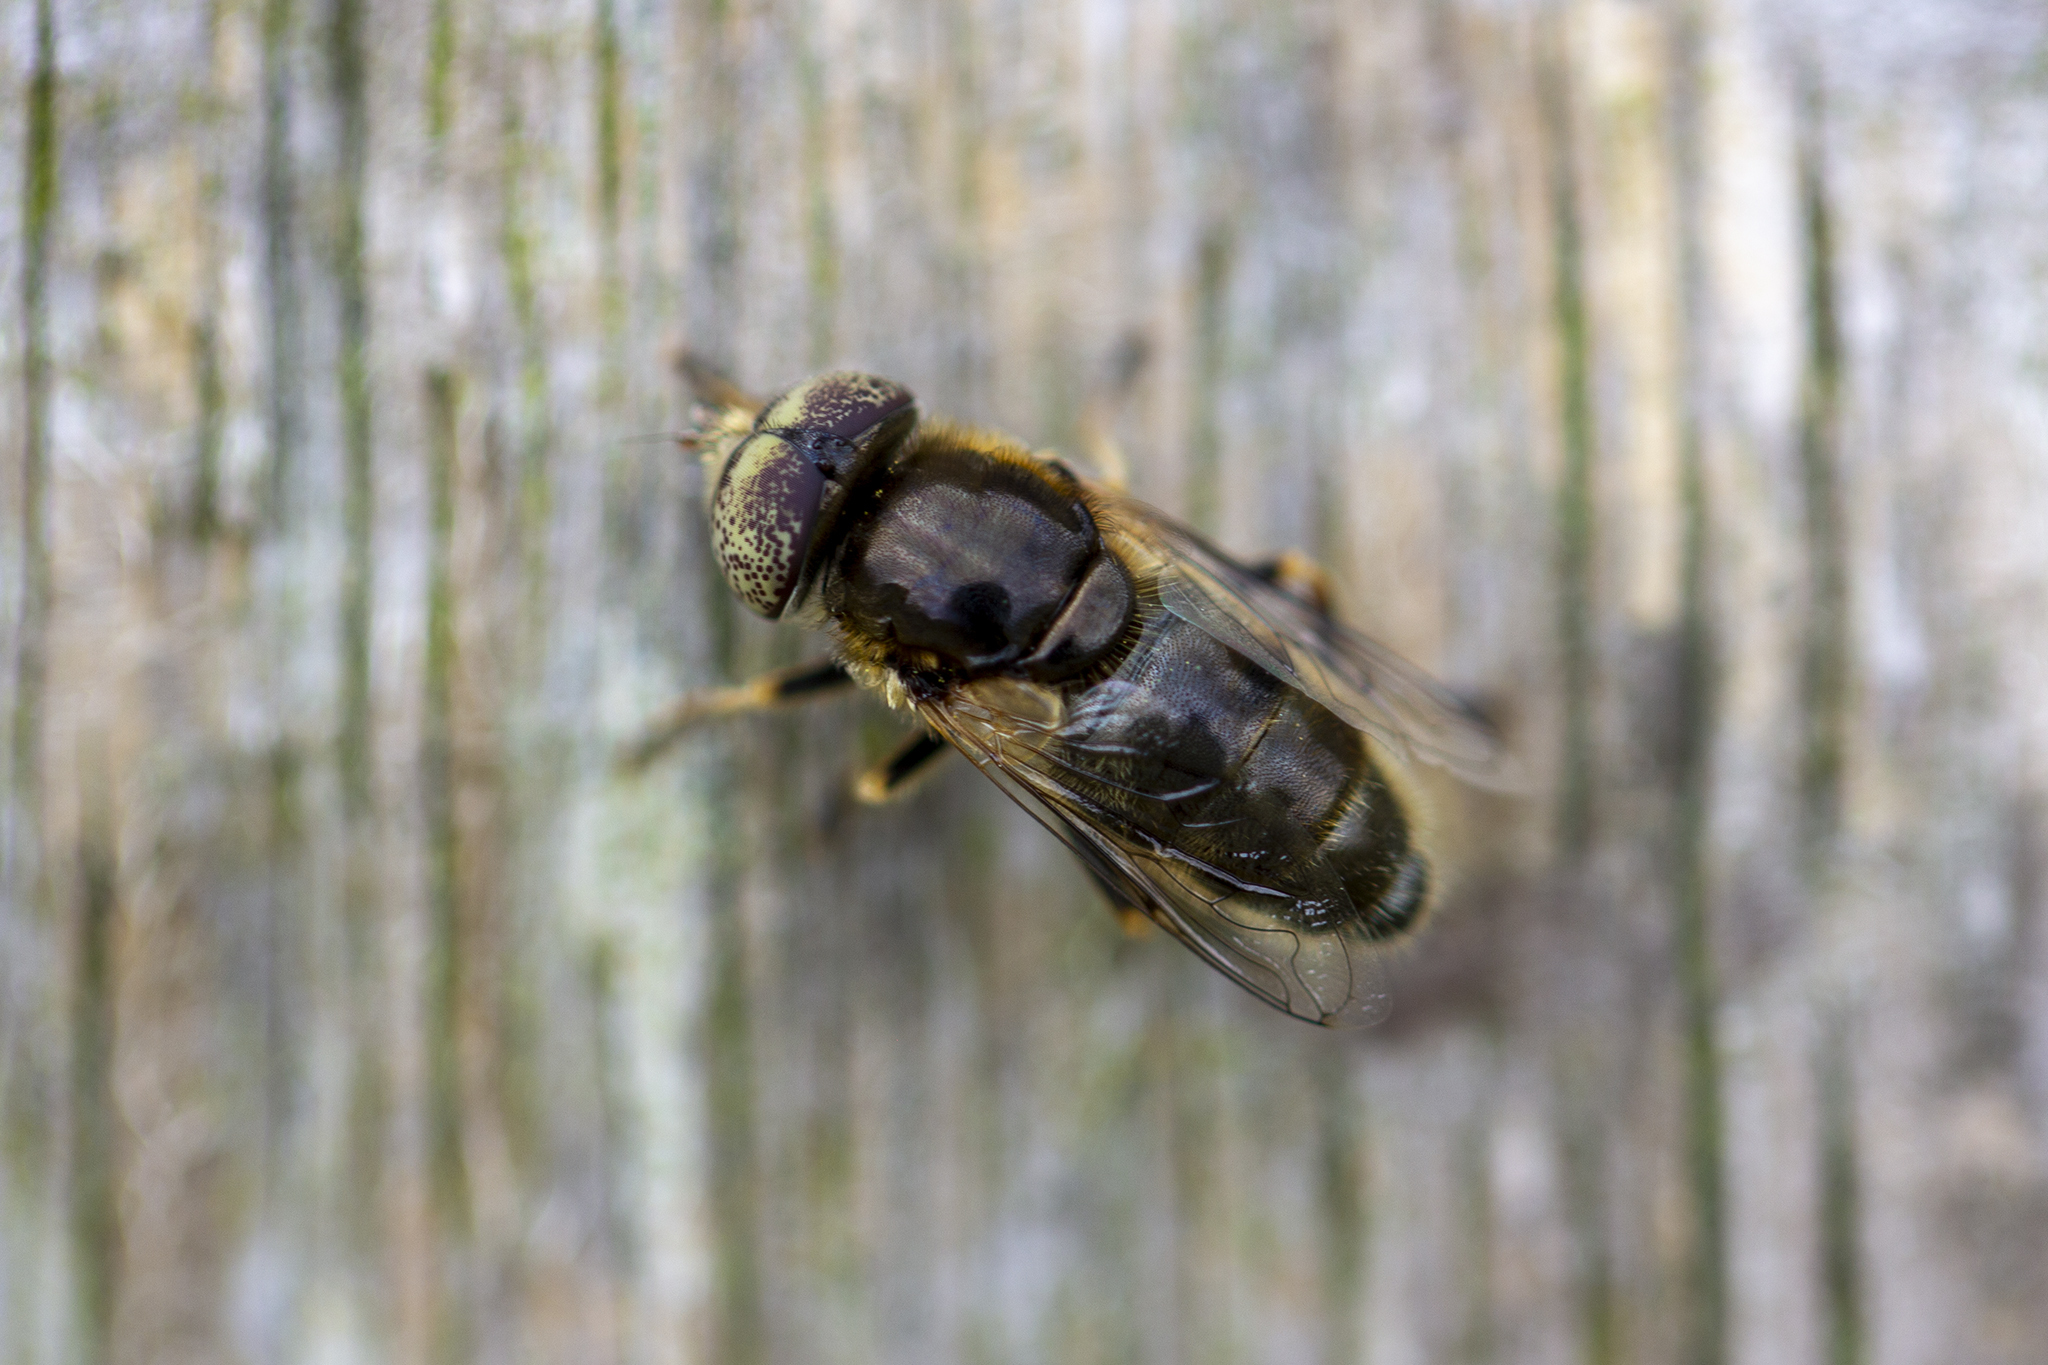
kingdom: Animalia
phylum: Arthropoda
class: Insecta
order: Diptera
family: Syrphidae
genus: Eristalinus
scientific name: Eristalinus aeneus
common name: Syrphid fly
